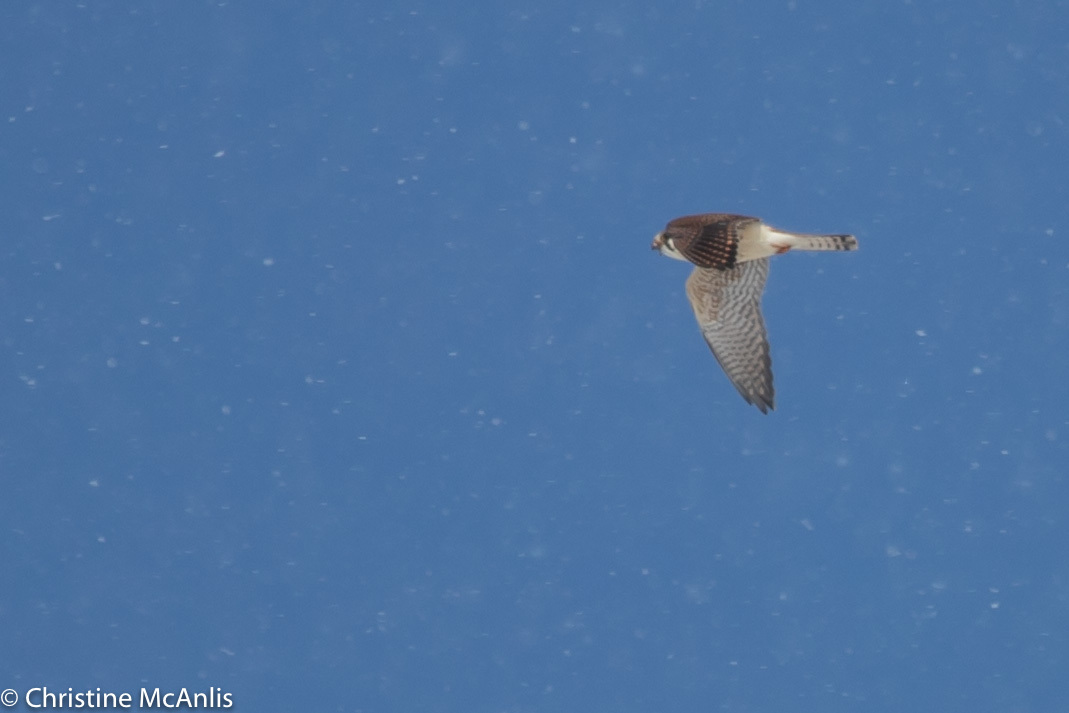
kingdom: Animalia
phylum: Chordata
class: Aves
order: Falconiformes
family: Falconidae
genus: Falco
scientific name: Falco sparverius
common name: American kestrel
